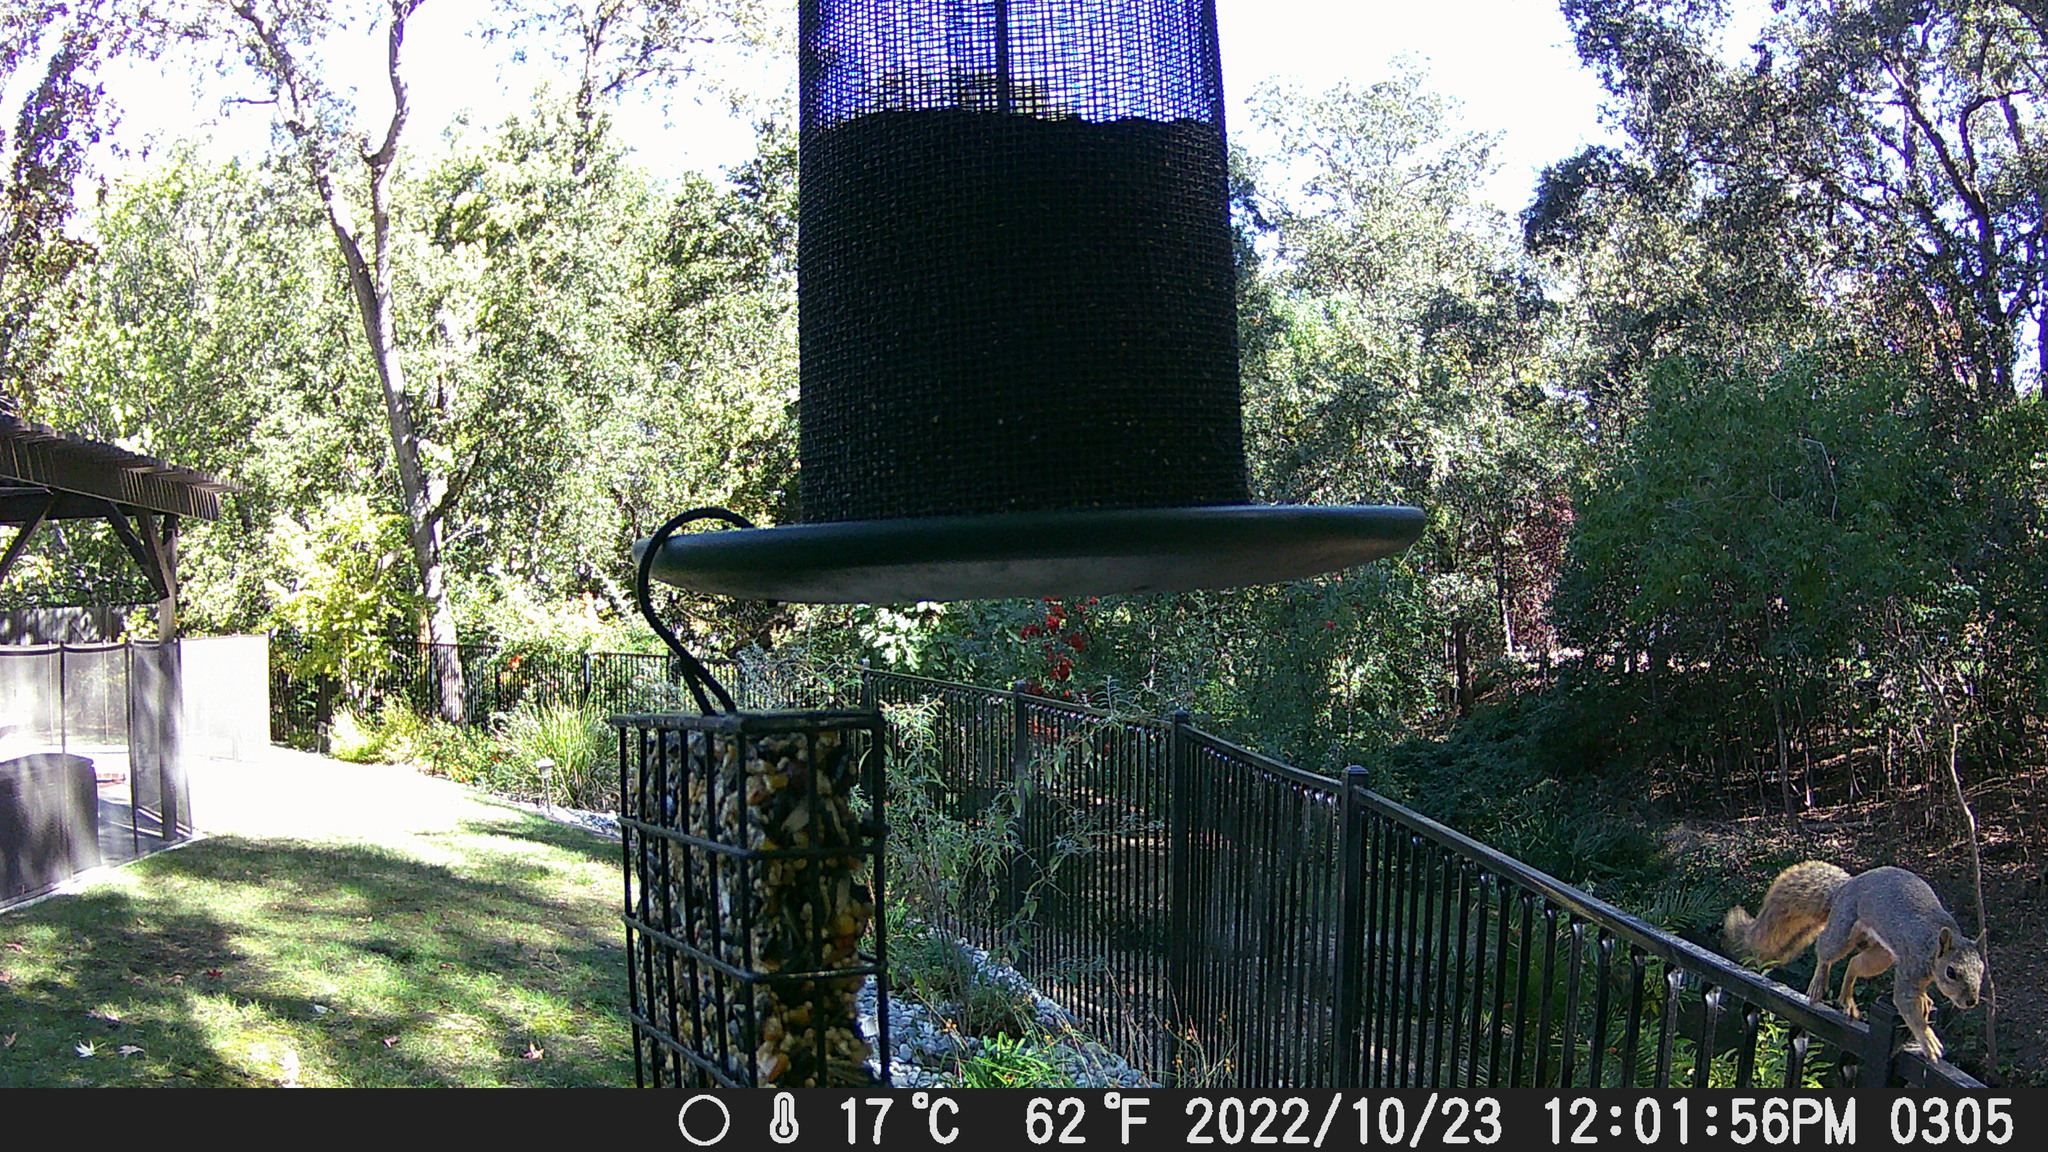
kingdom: Animalia
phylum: Chordata
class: Mammalia
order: Rodentia
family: Sciuridae
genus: Sciurus
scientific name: Sciurus niger
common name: Fox squirrel
